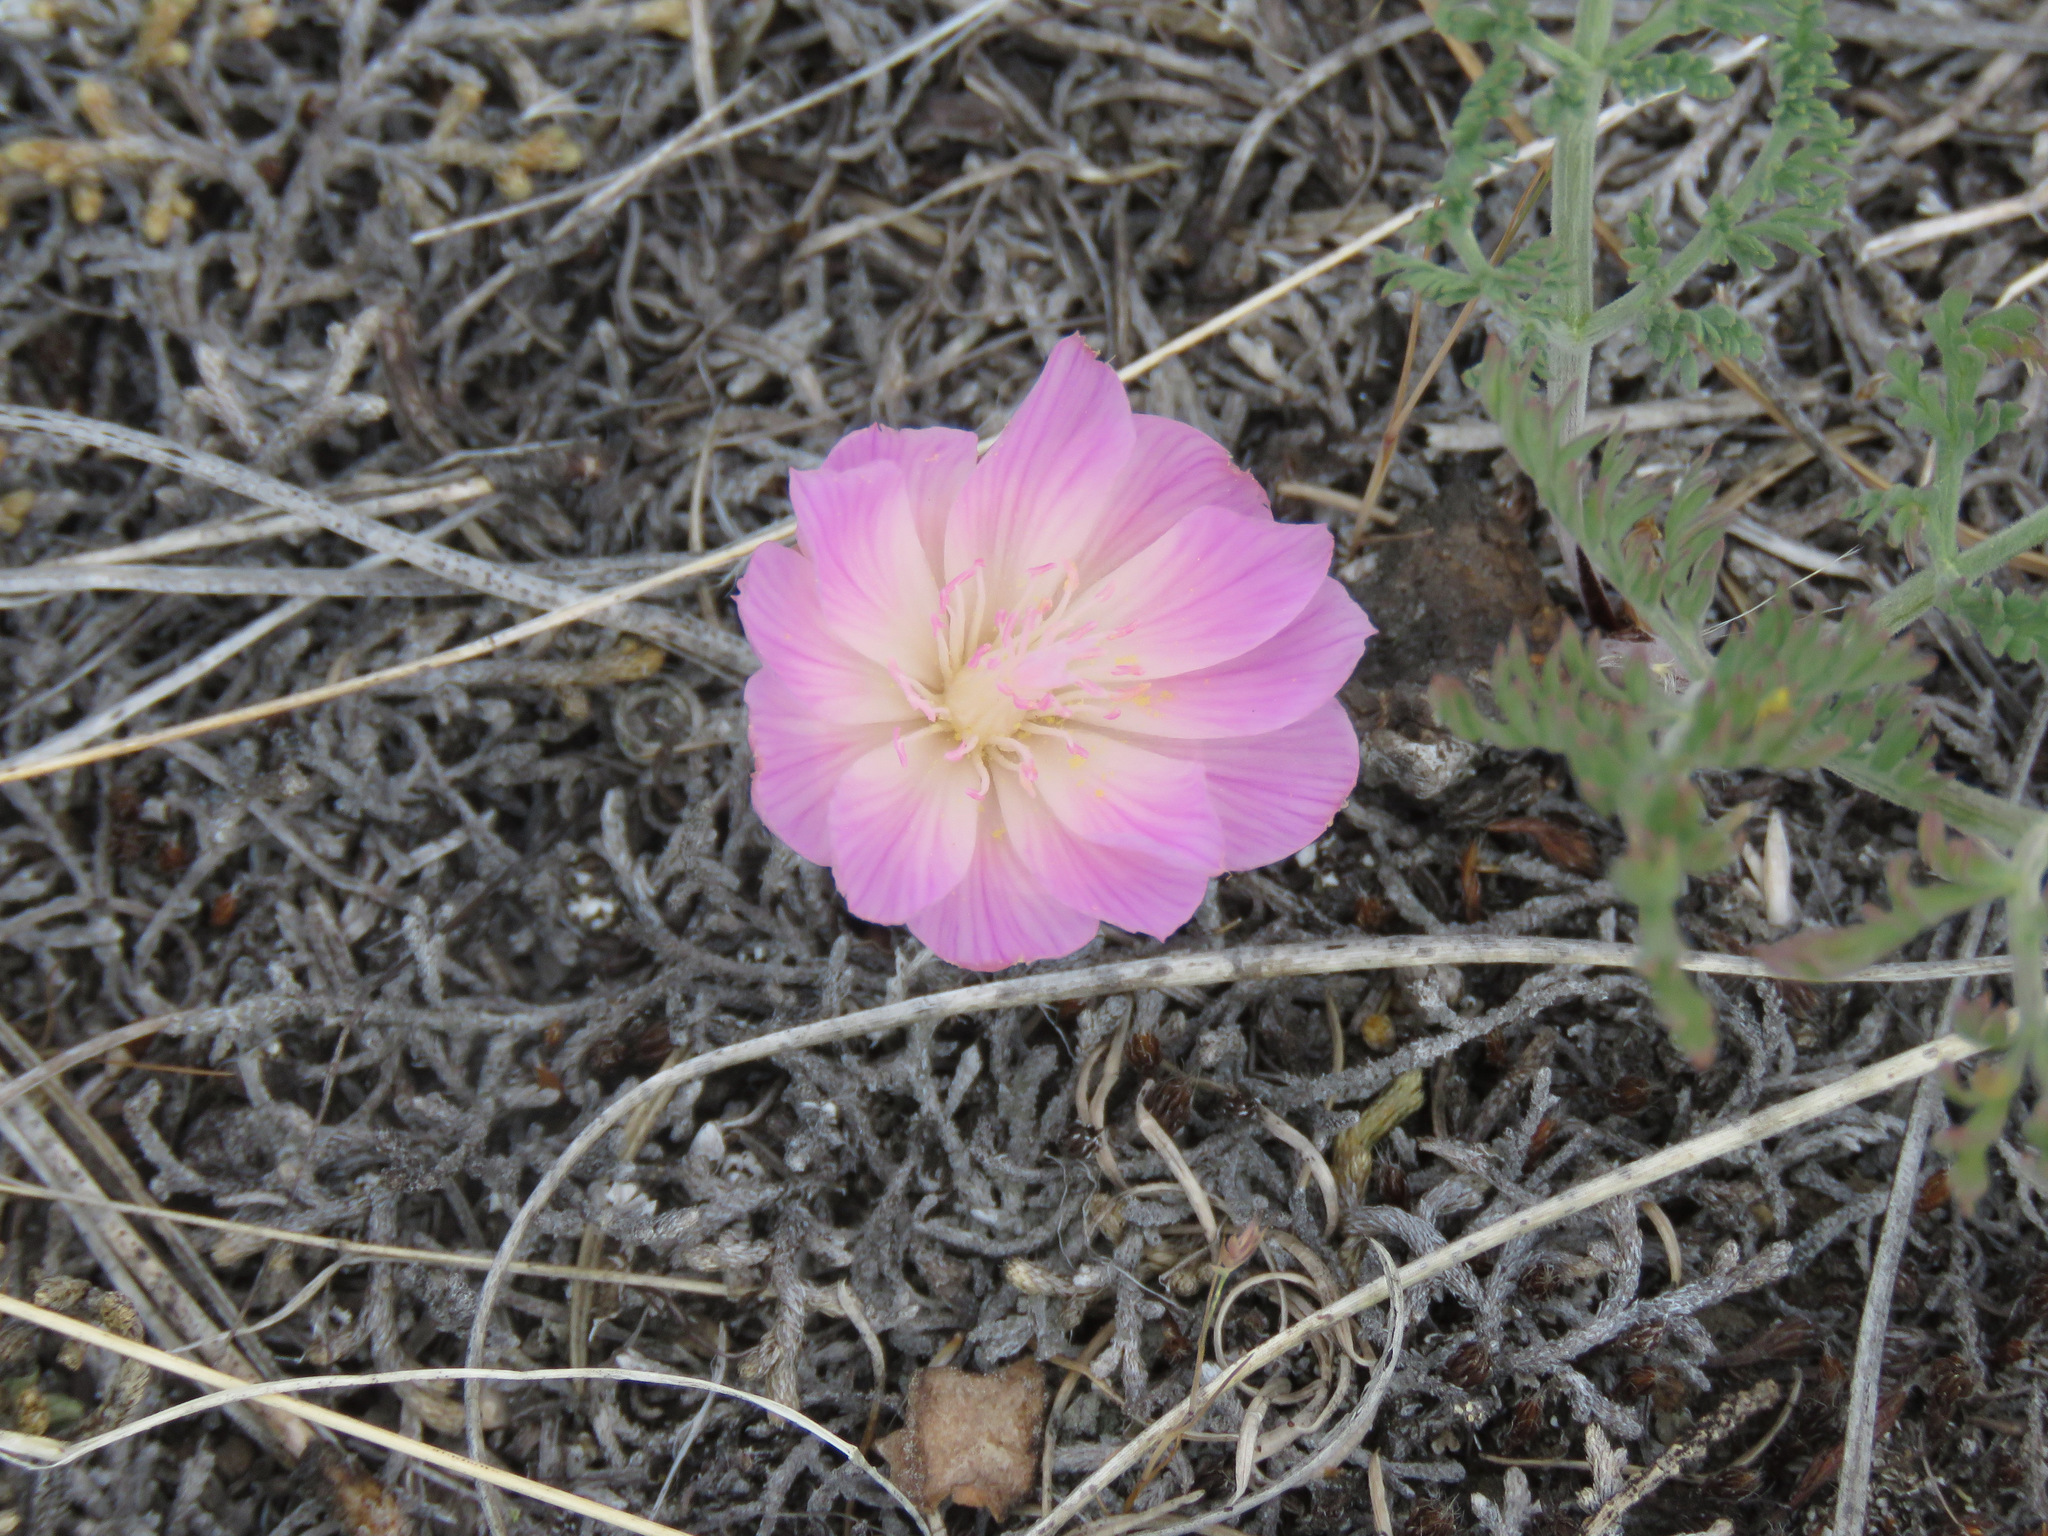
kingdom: Plantae
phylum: Tracheophyta
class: Magnoliopsida
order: Caryophyllales
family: Montiaceae
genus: Lewisia
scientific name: Lewisia rediviva
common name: Bitter-root
